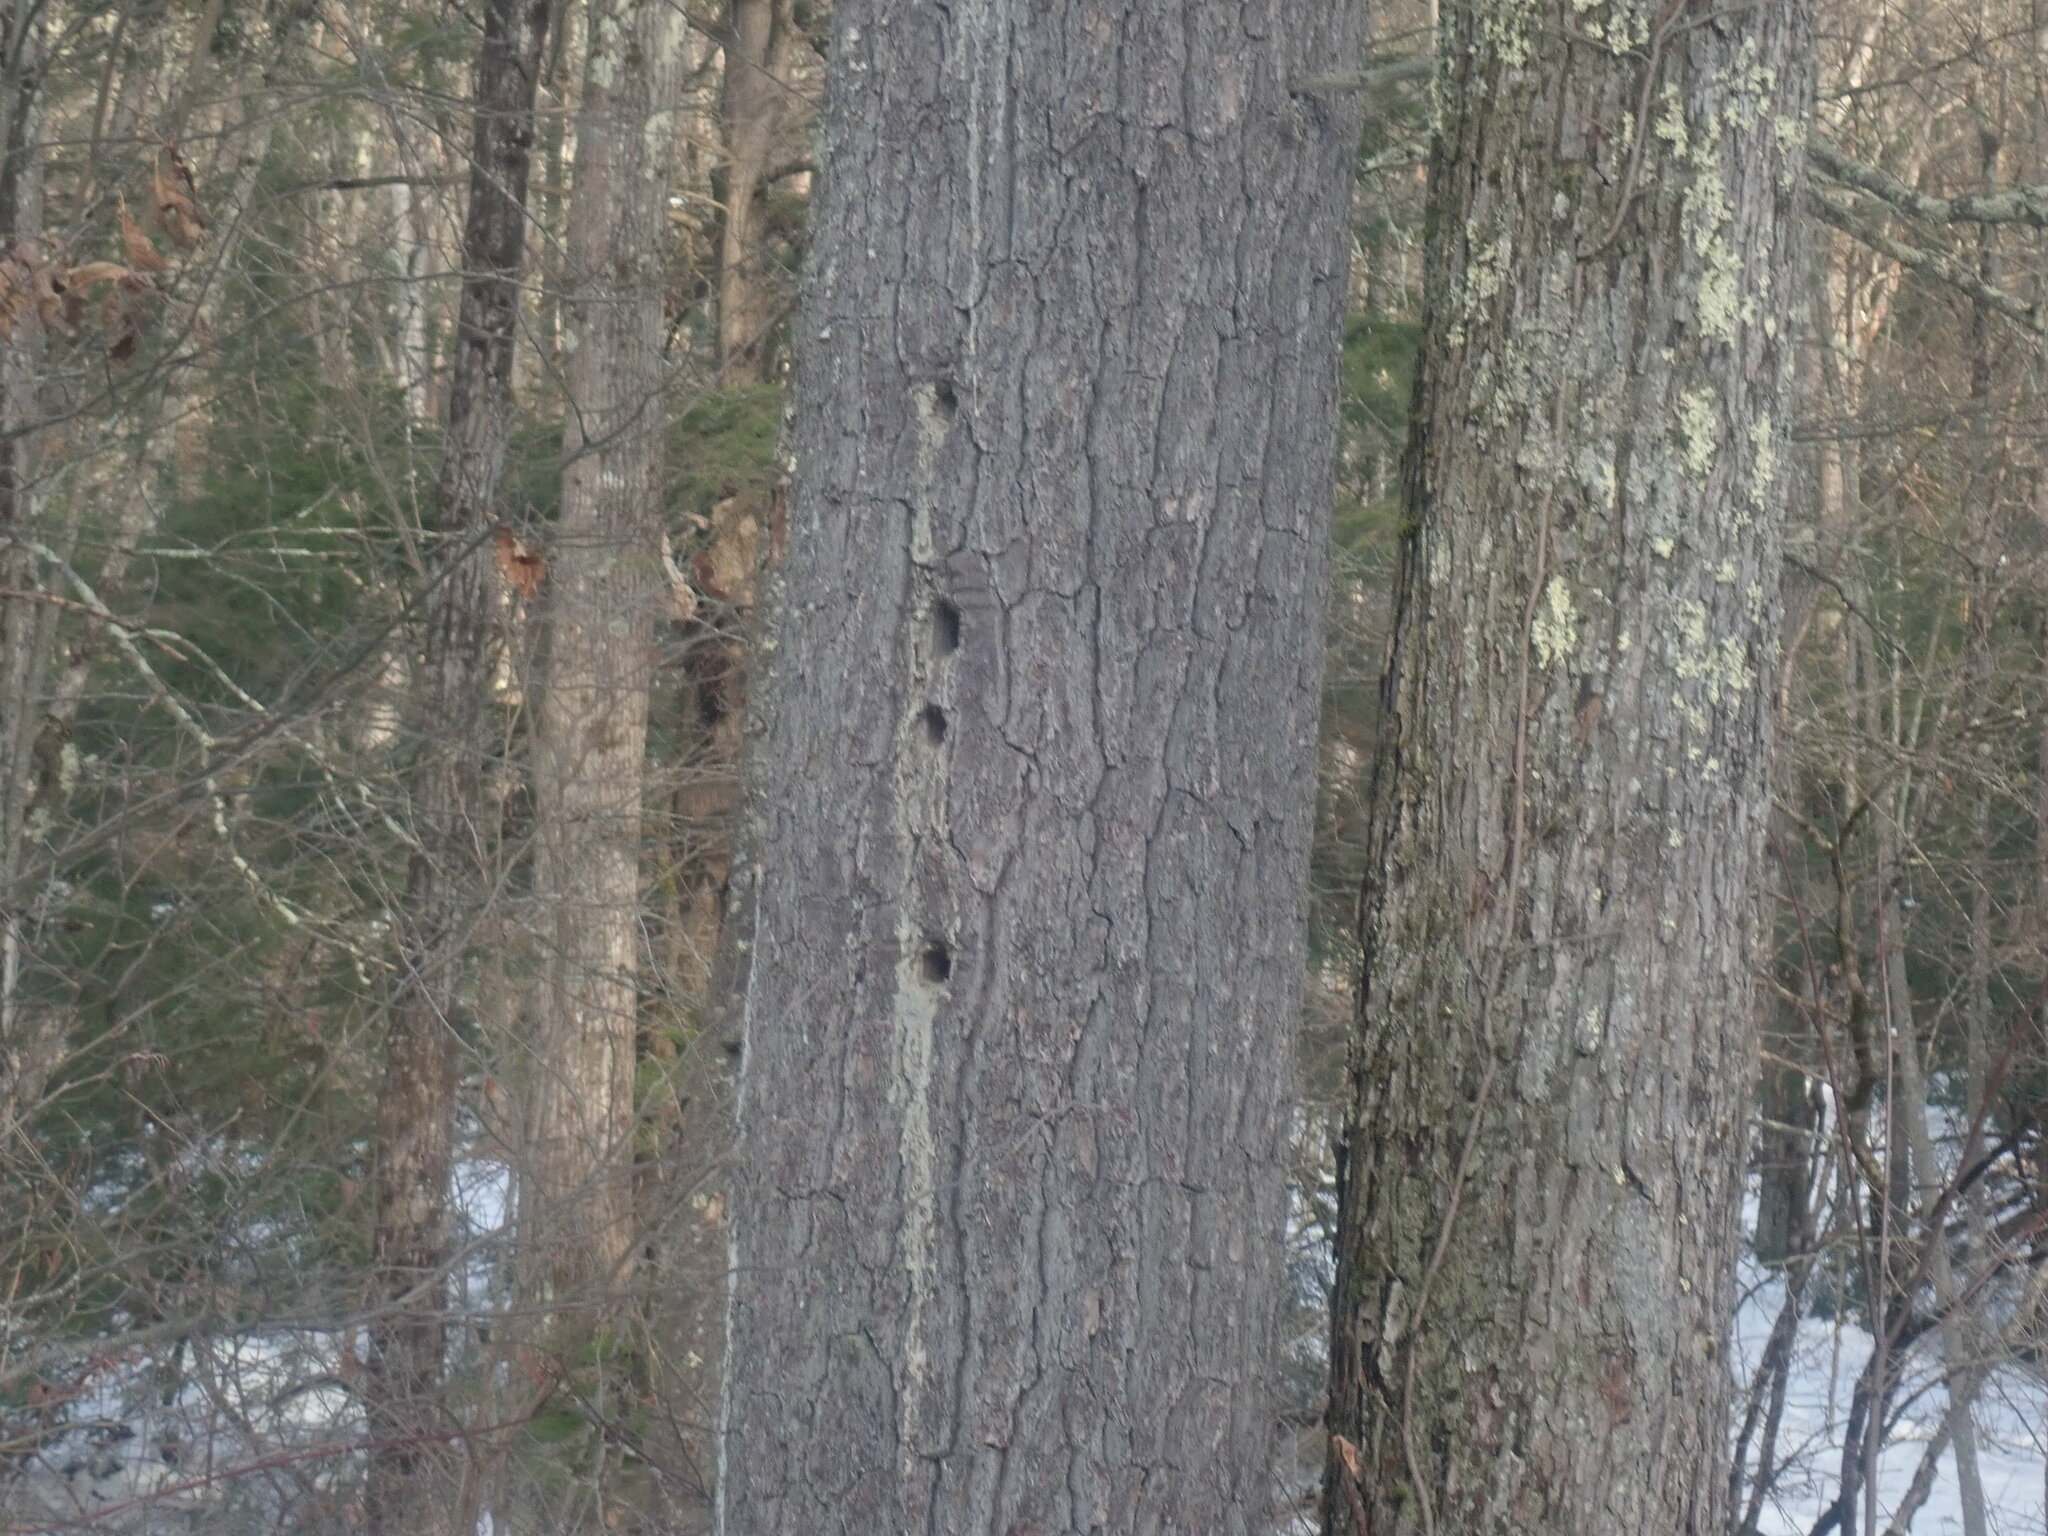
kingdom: Animalia
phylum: Chordata
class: Aves
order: Piciformes
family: Picidae
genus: Dryocopus
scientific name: Dryocopus pileatus
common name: Pileated woodpecker
